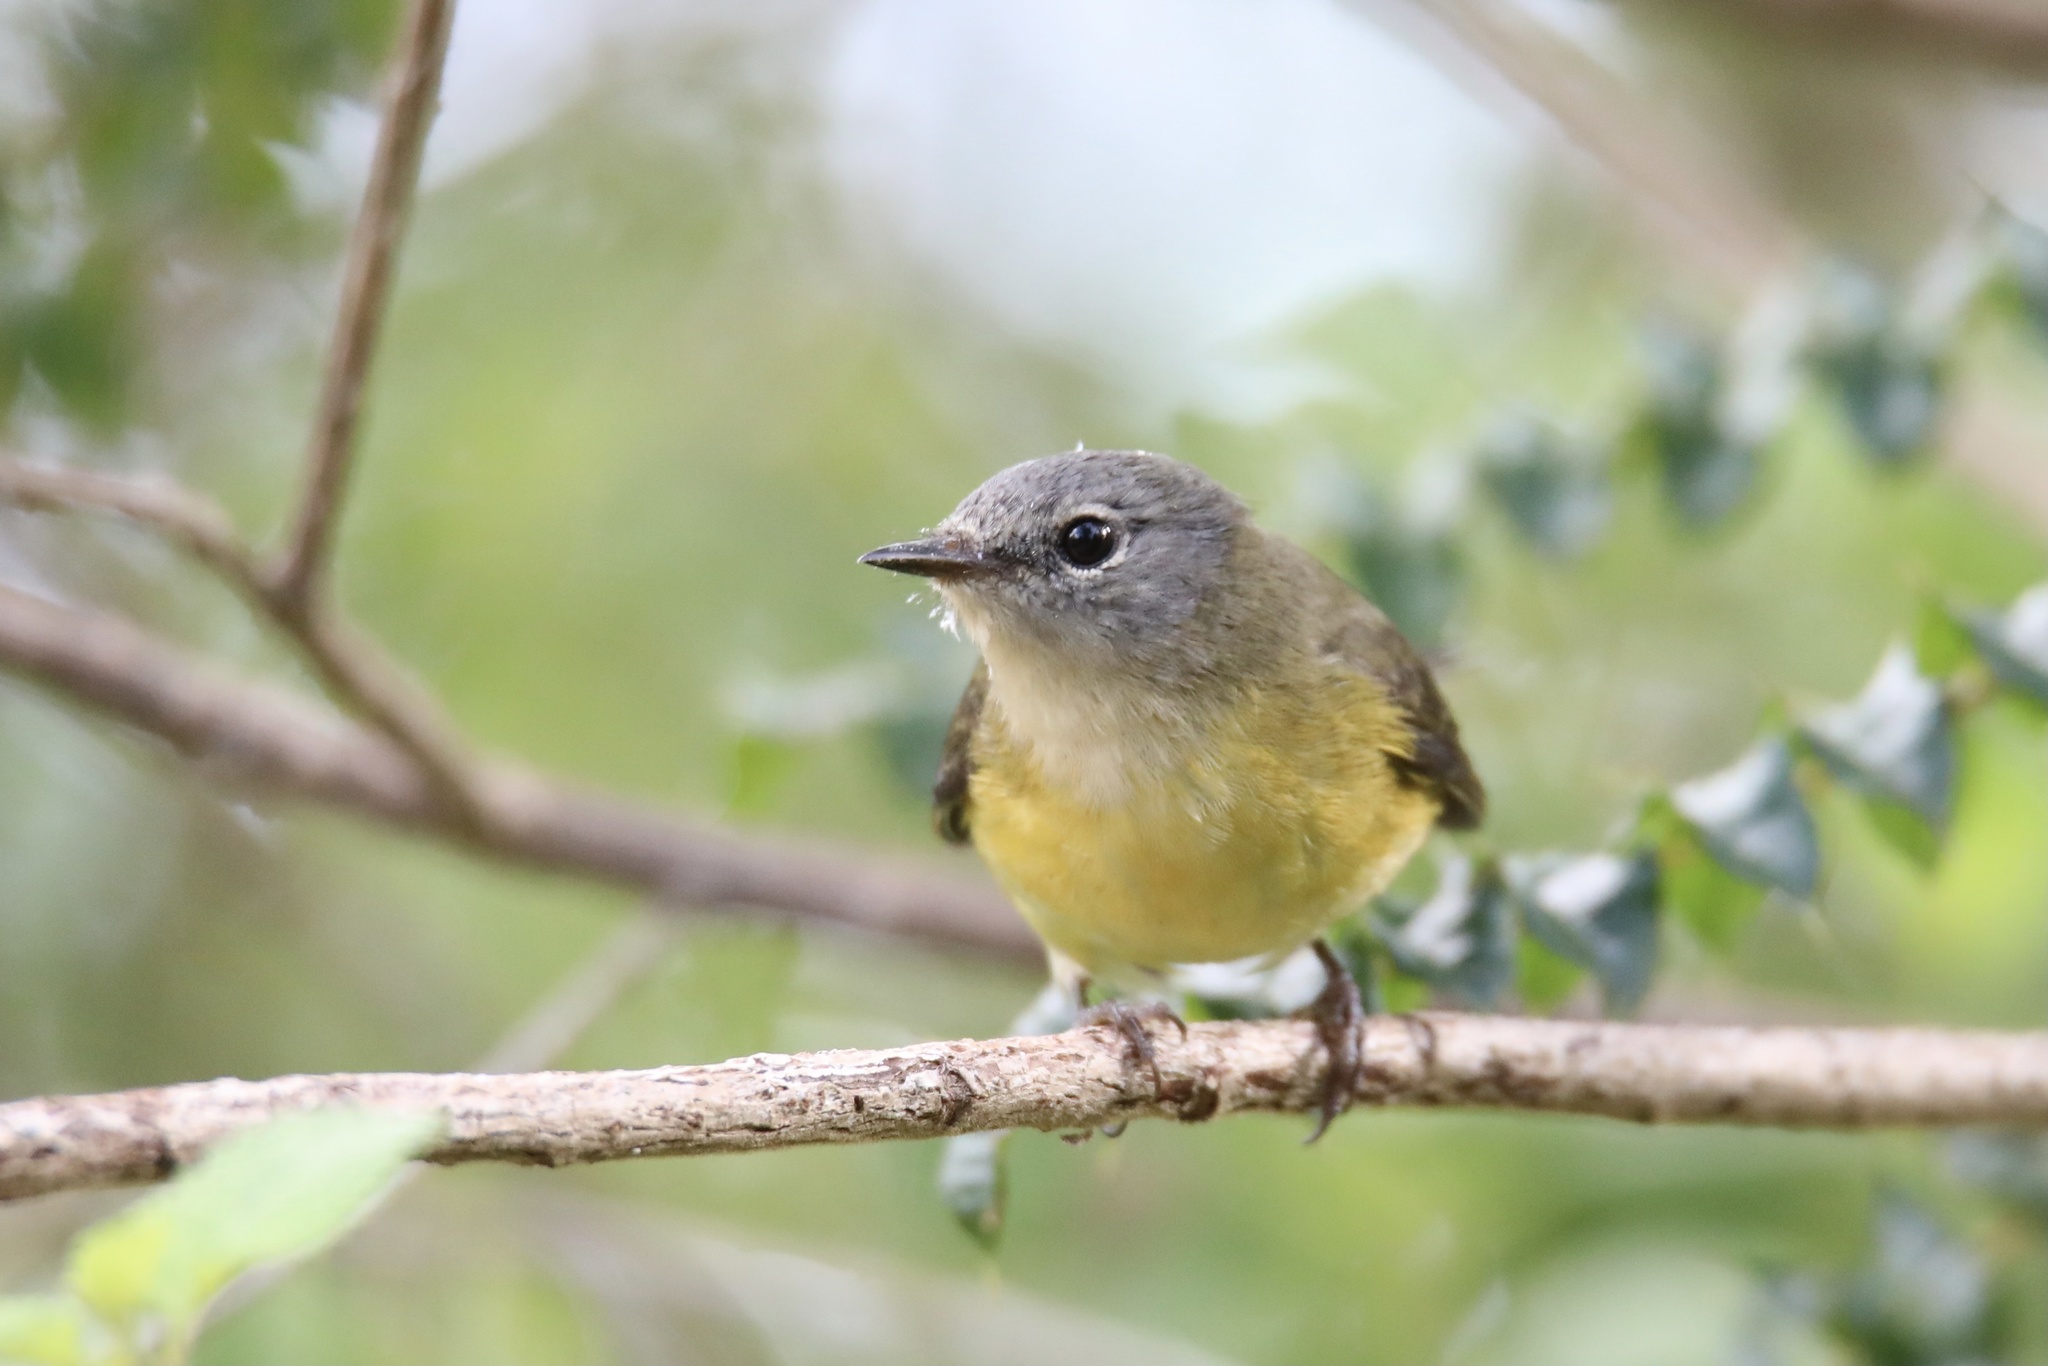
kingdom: Animalia
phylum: Chordata
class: Aves
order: Passeriformes
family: Parulidae
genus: Setophaga
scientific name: Setophaga ruticilla
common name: American redstart
